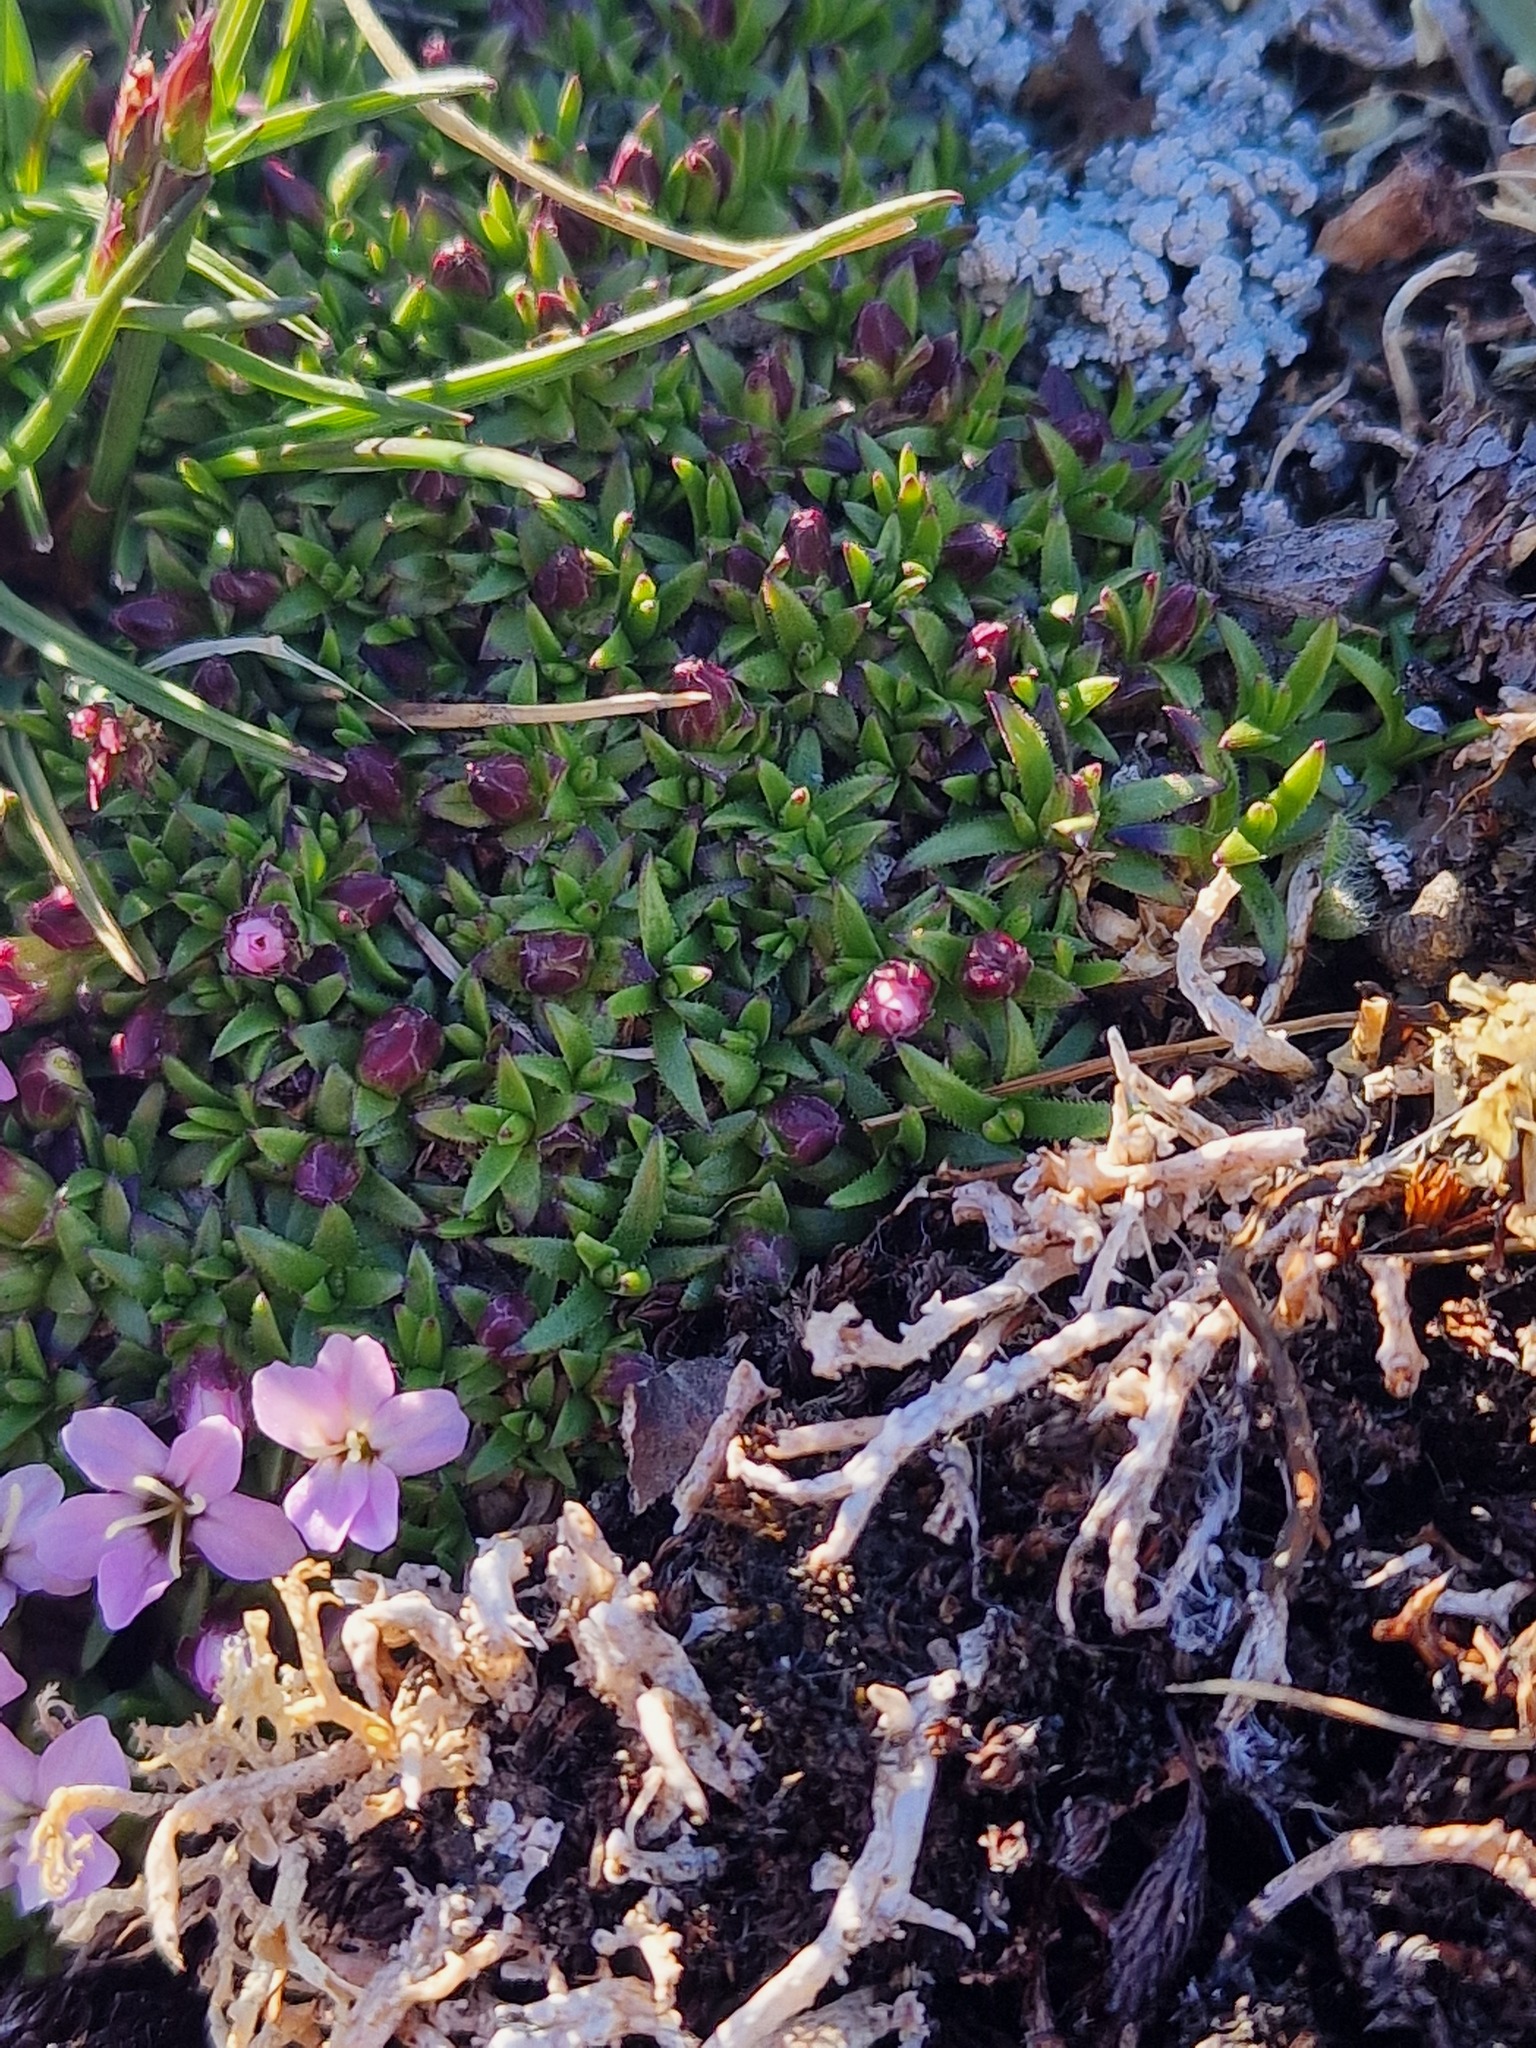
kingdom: Plantae
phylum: Tracheophyta
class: Magnoliopsida
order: Caryophyllales
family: Caryophyllaceae
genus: Silene
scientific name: Silene acaulis
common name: Moss campion
